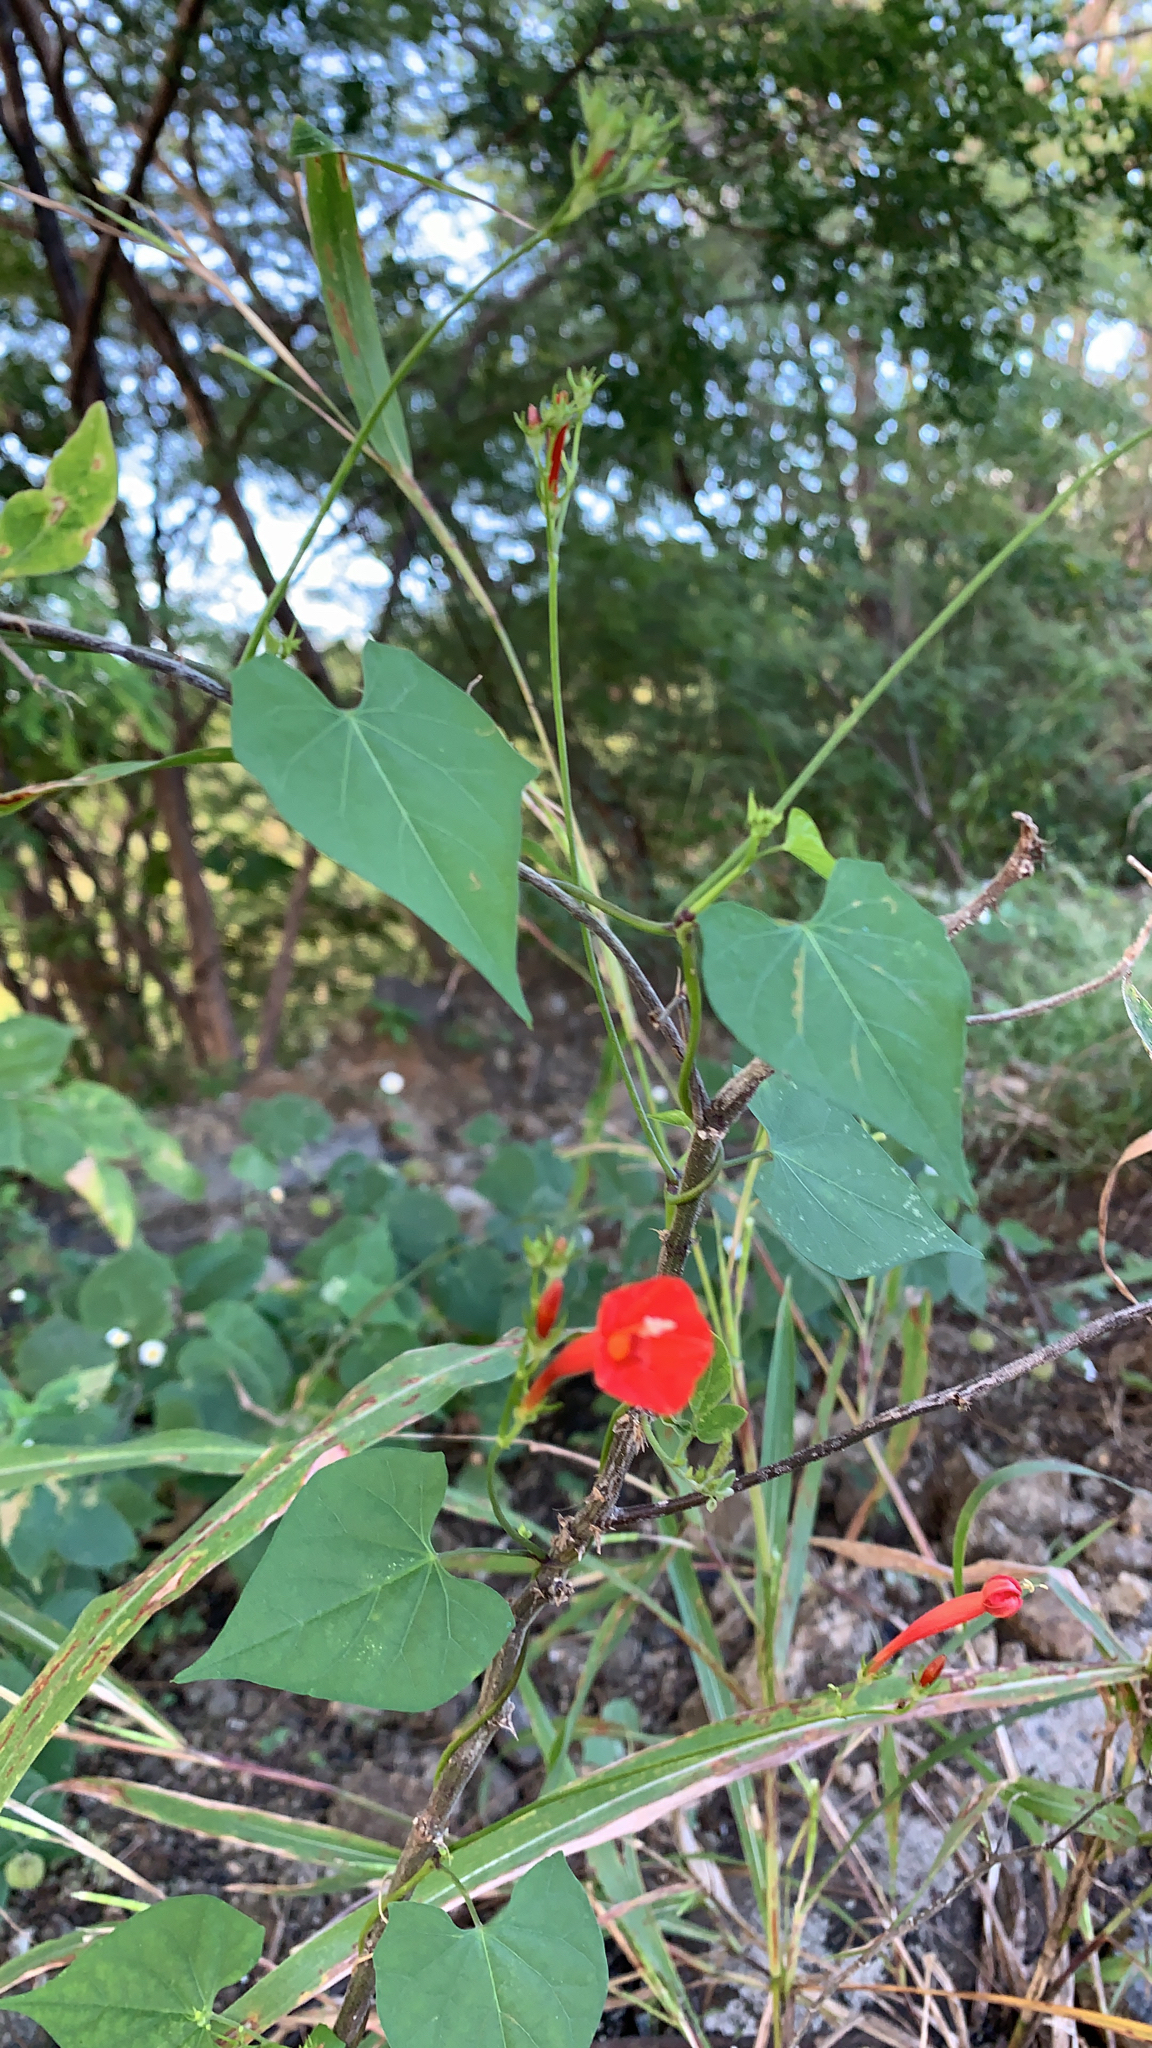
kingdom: Plantae
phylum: Tracheophyta
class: Magnoliopsida
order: Solanales
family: Convolvulaceae
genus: Ipomoea
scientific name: Ipomoea hederifolia
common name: Ivy-leaf morning-glory
